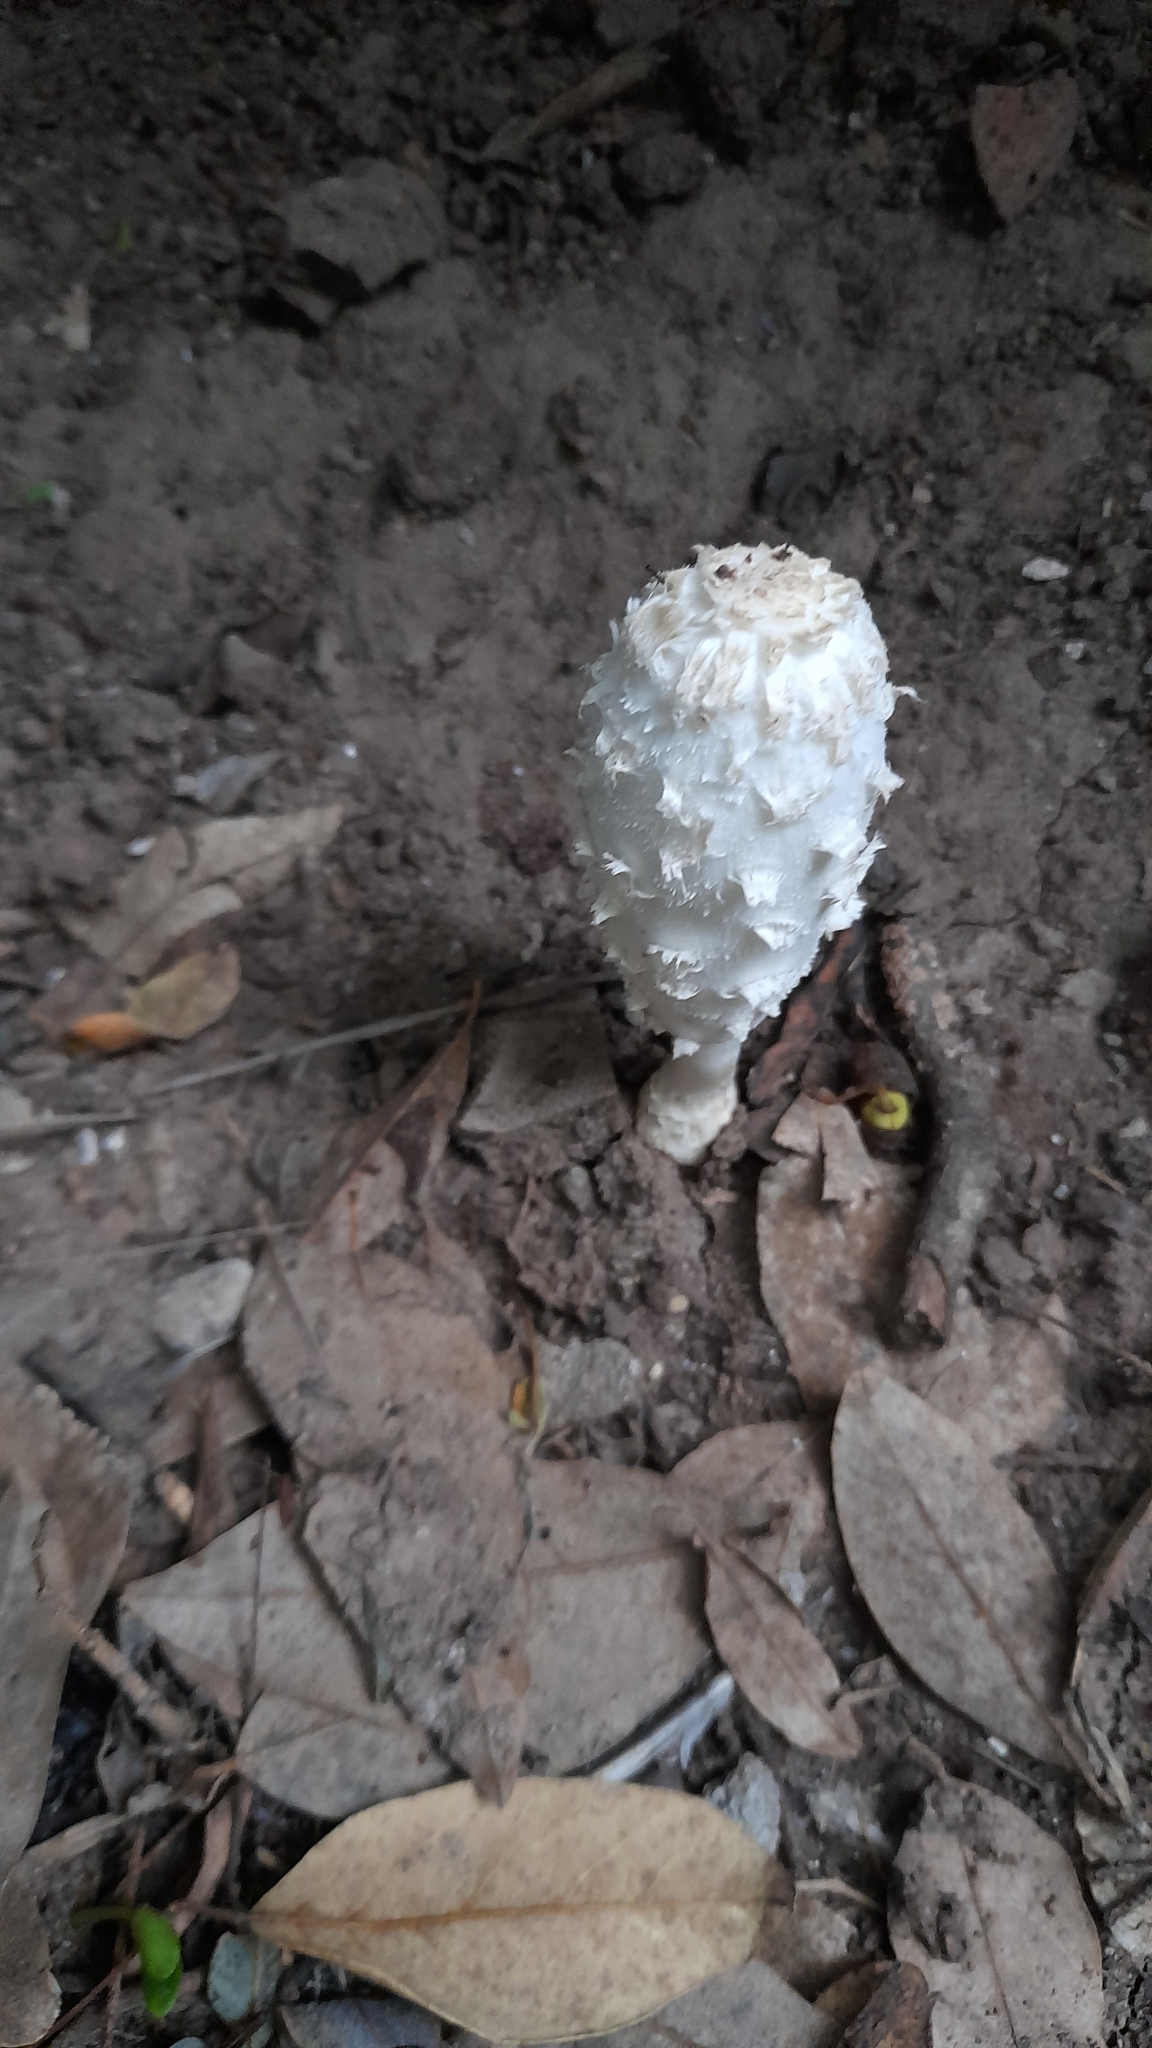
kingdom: Fungi
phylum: Basidiomycota
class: Agaricomycetes
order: Agaricales
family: Agaricaceae
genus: Coprinus
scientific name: Coprinus comatus
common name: Lawyer's wig
